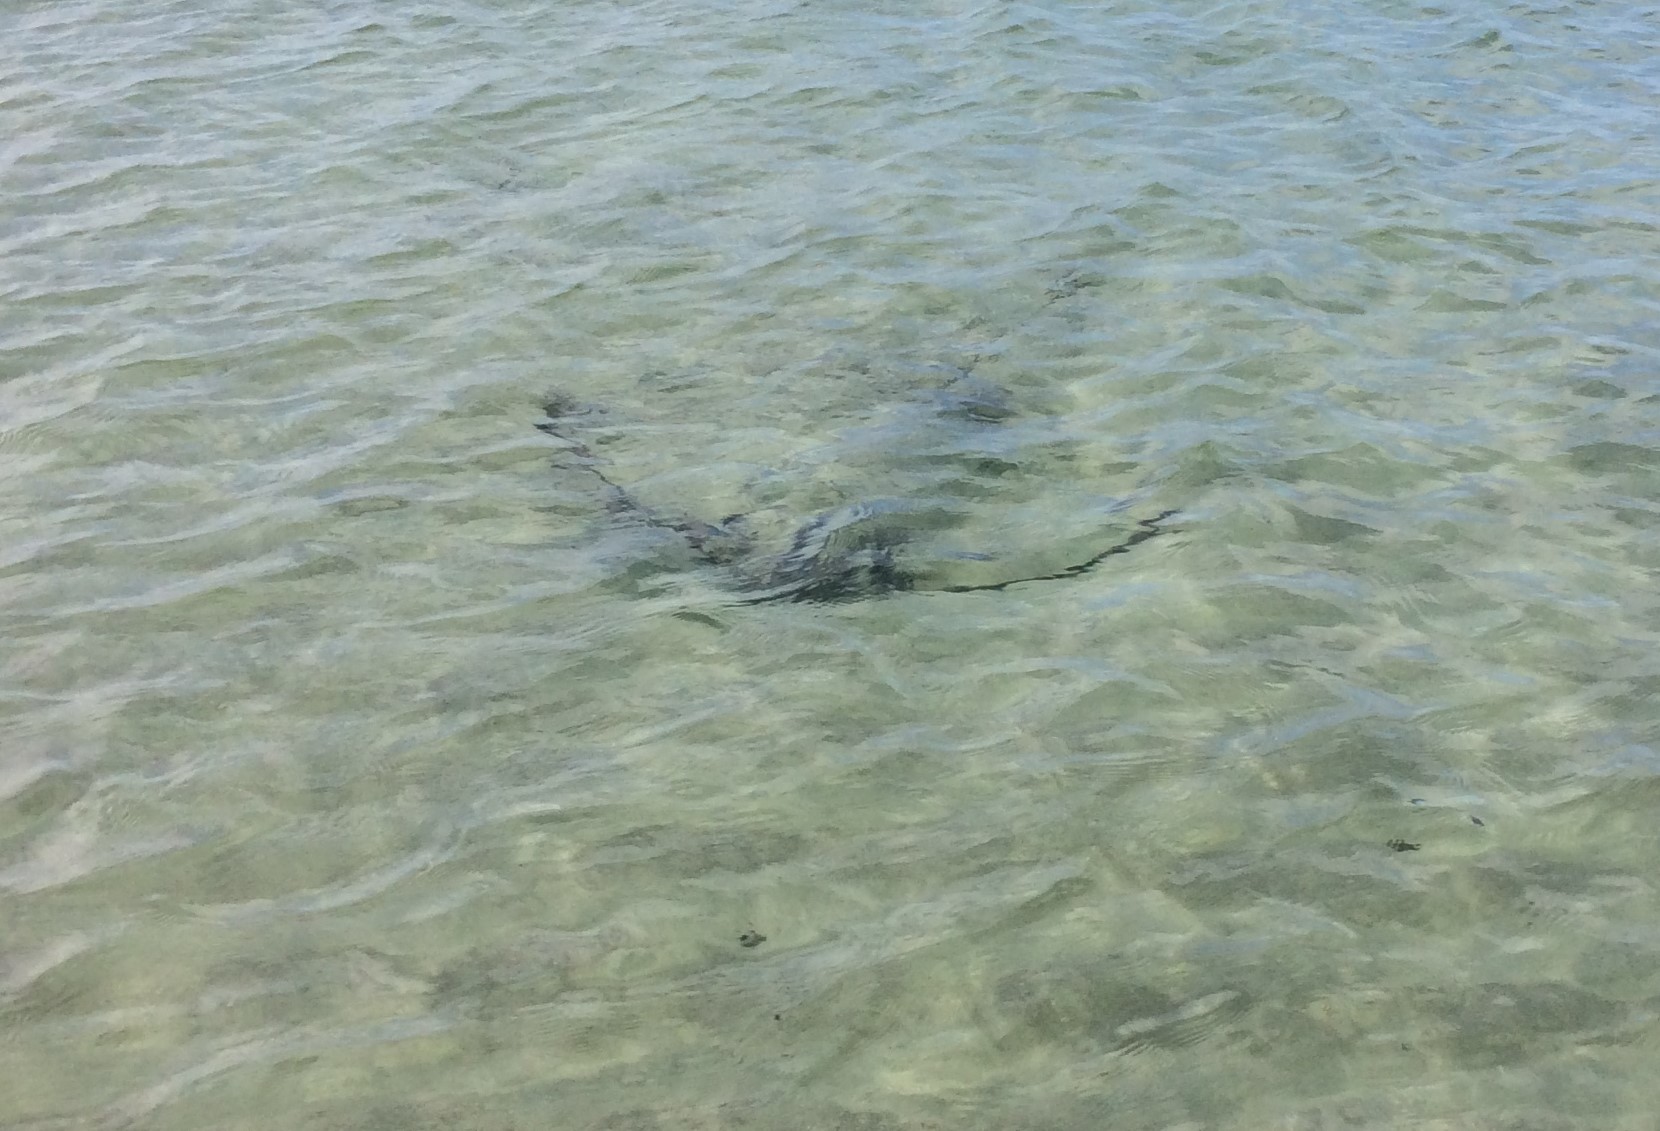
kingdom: Animalia
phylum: Chordata
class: Elasmobranchii
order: Myliobatiformes
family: Myliobatidae
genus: Myliobatis
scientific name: Myliobatis tenuicaudatus
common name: Eagle ray
